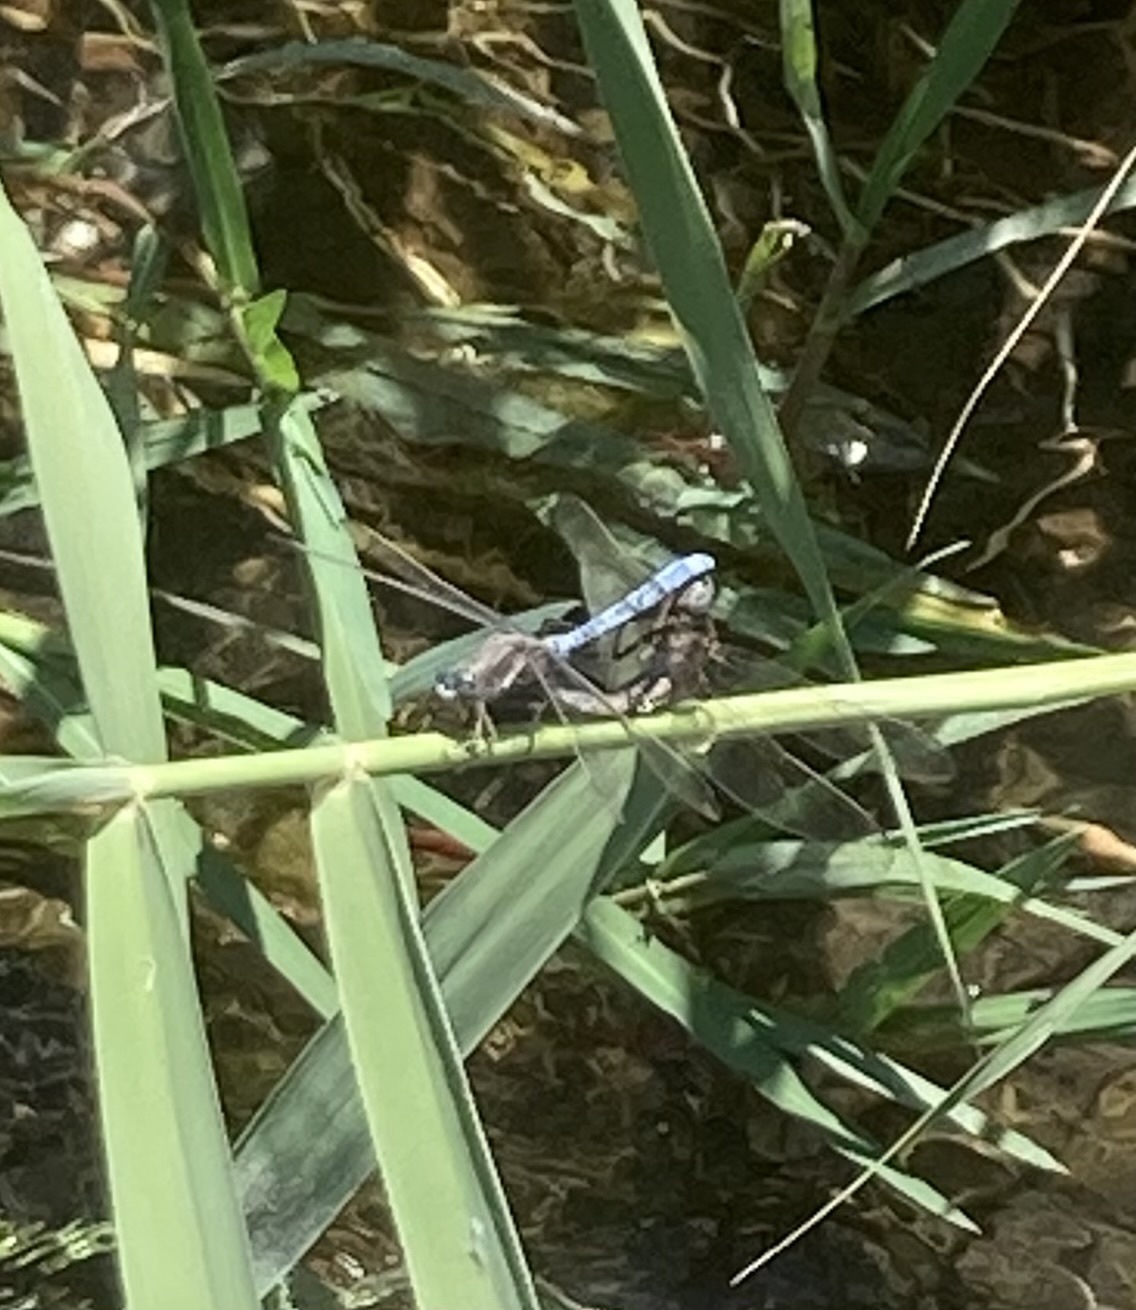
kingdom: Animalia
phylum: Arthropoda
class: Insecta
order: Odonata
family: Libellulidae
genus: Orthetrum
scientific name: Orthetrum chrysostigma
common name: Epaulet skimmer
